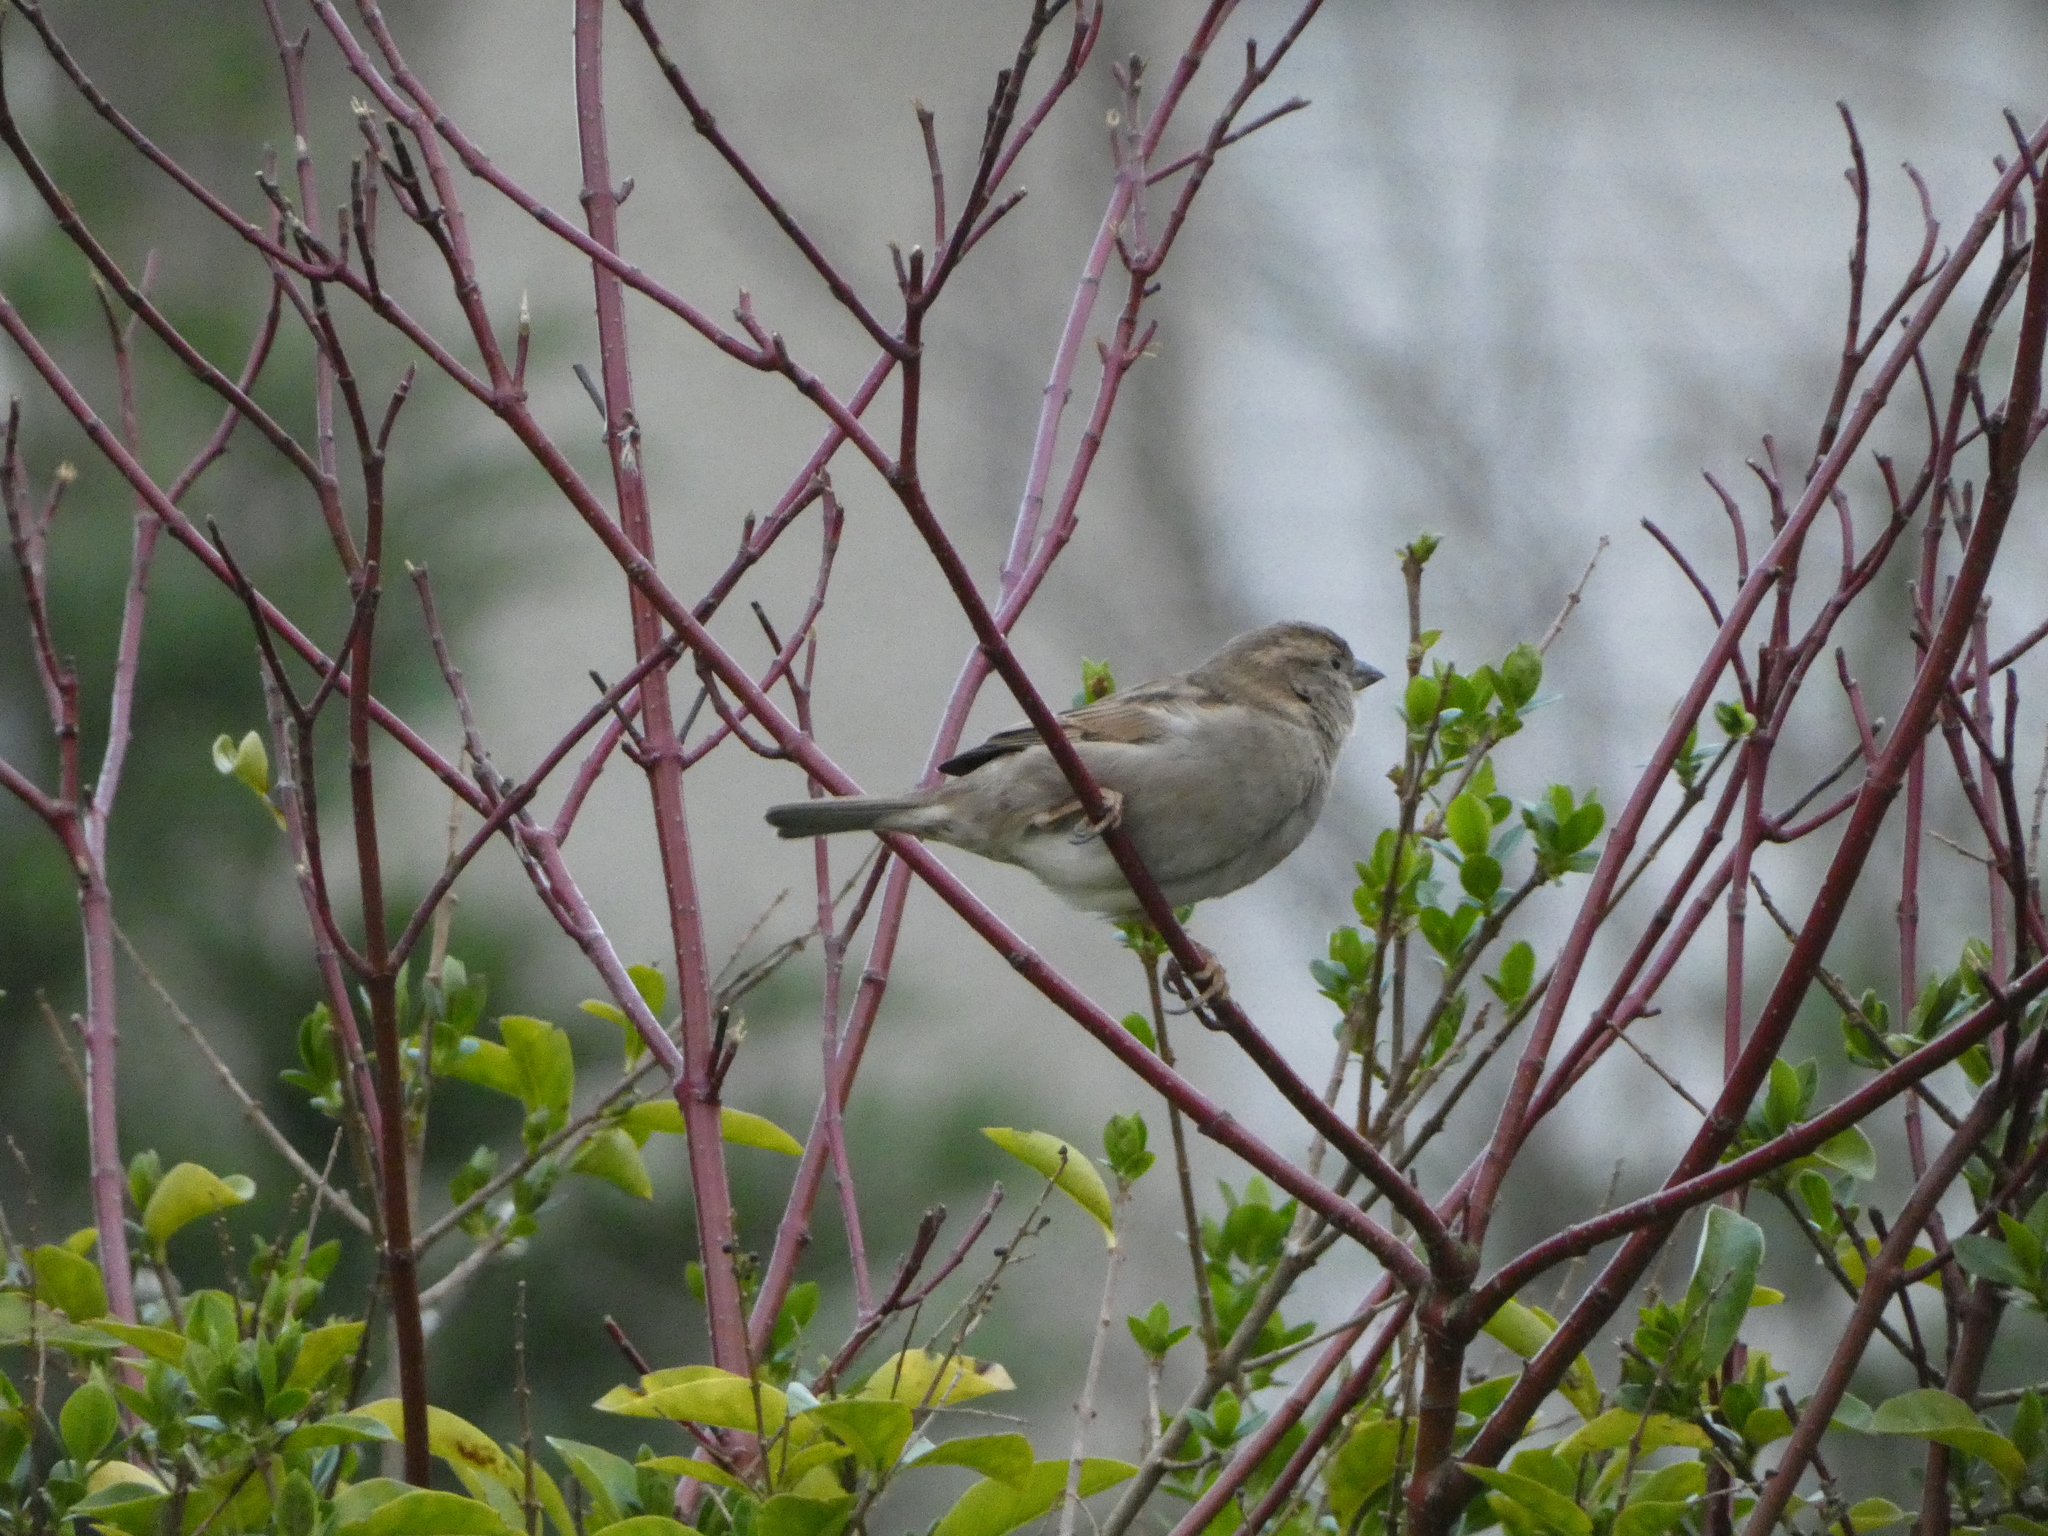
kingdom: Animalia
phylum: Chordata
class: Aves
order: Passeriformes
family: Passeridae
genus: Passer
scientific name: Passer domesticus
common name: House sparrow
